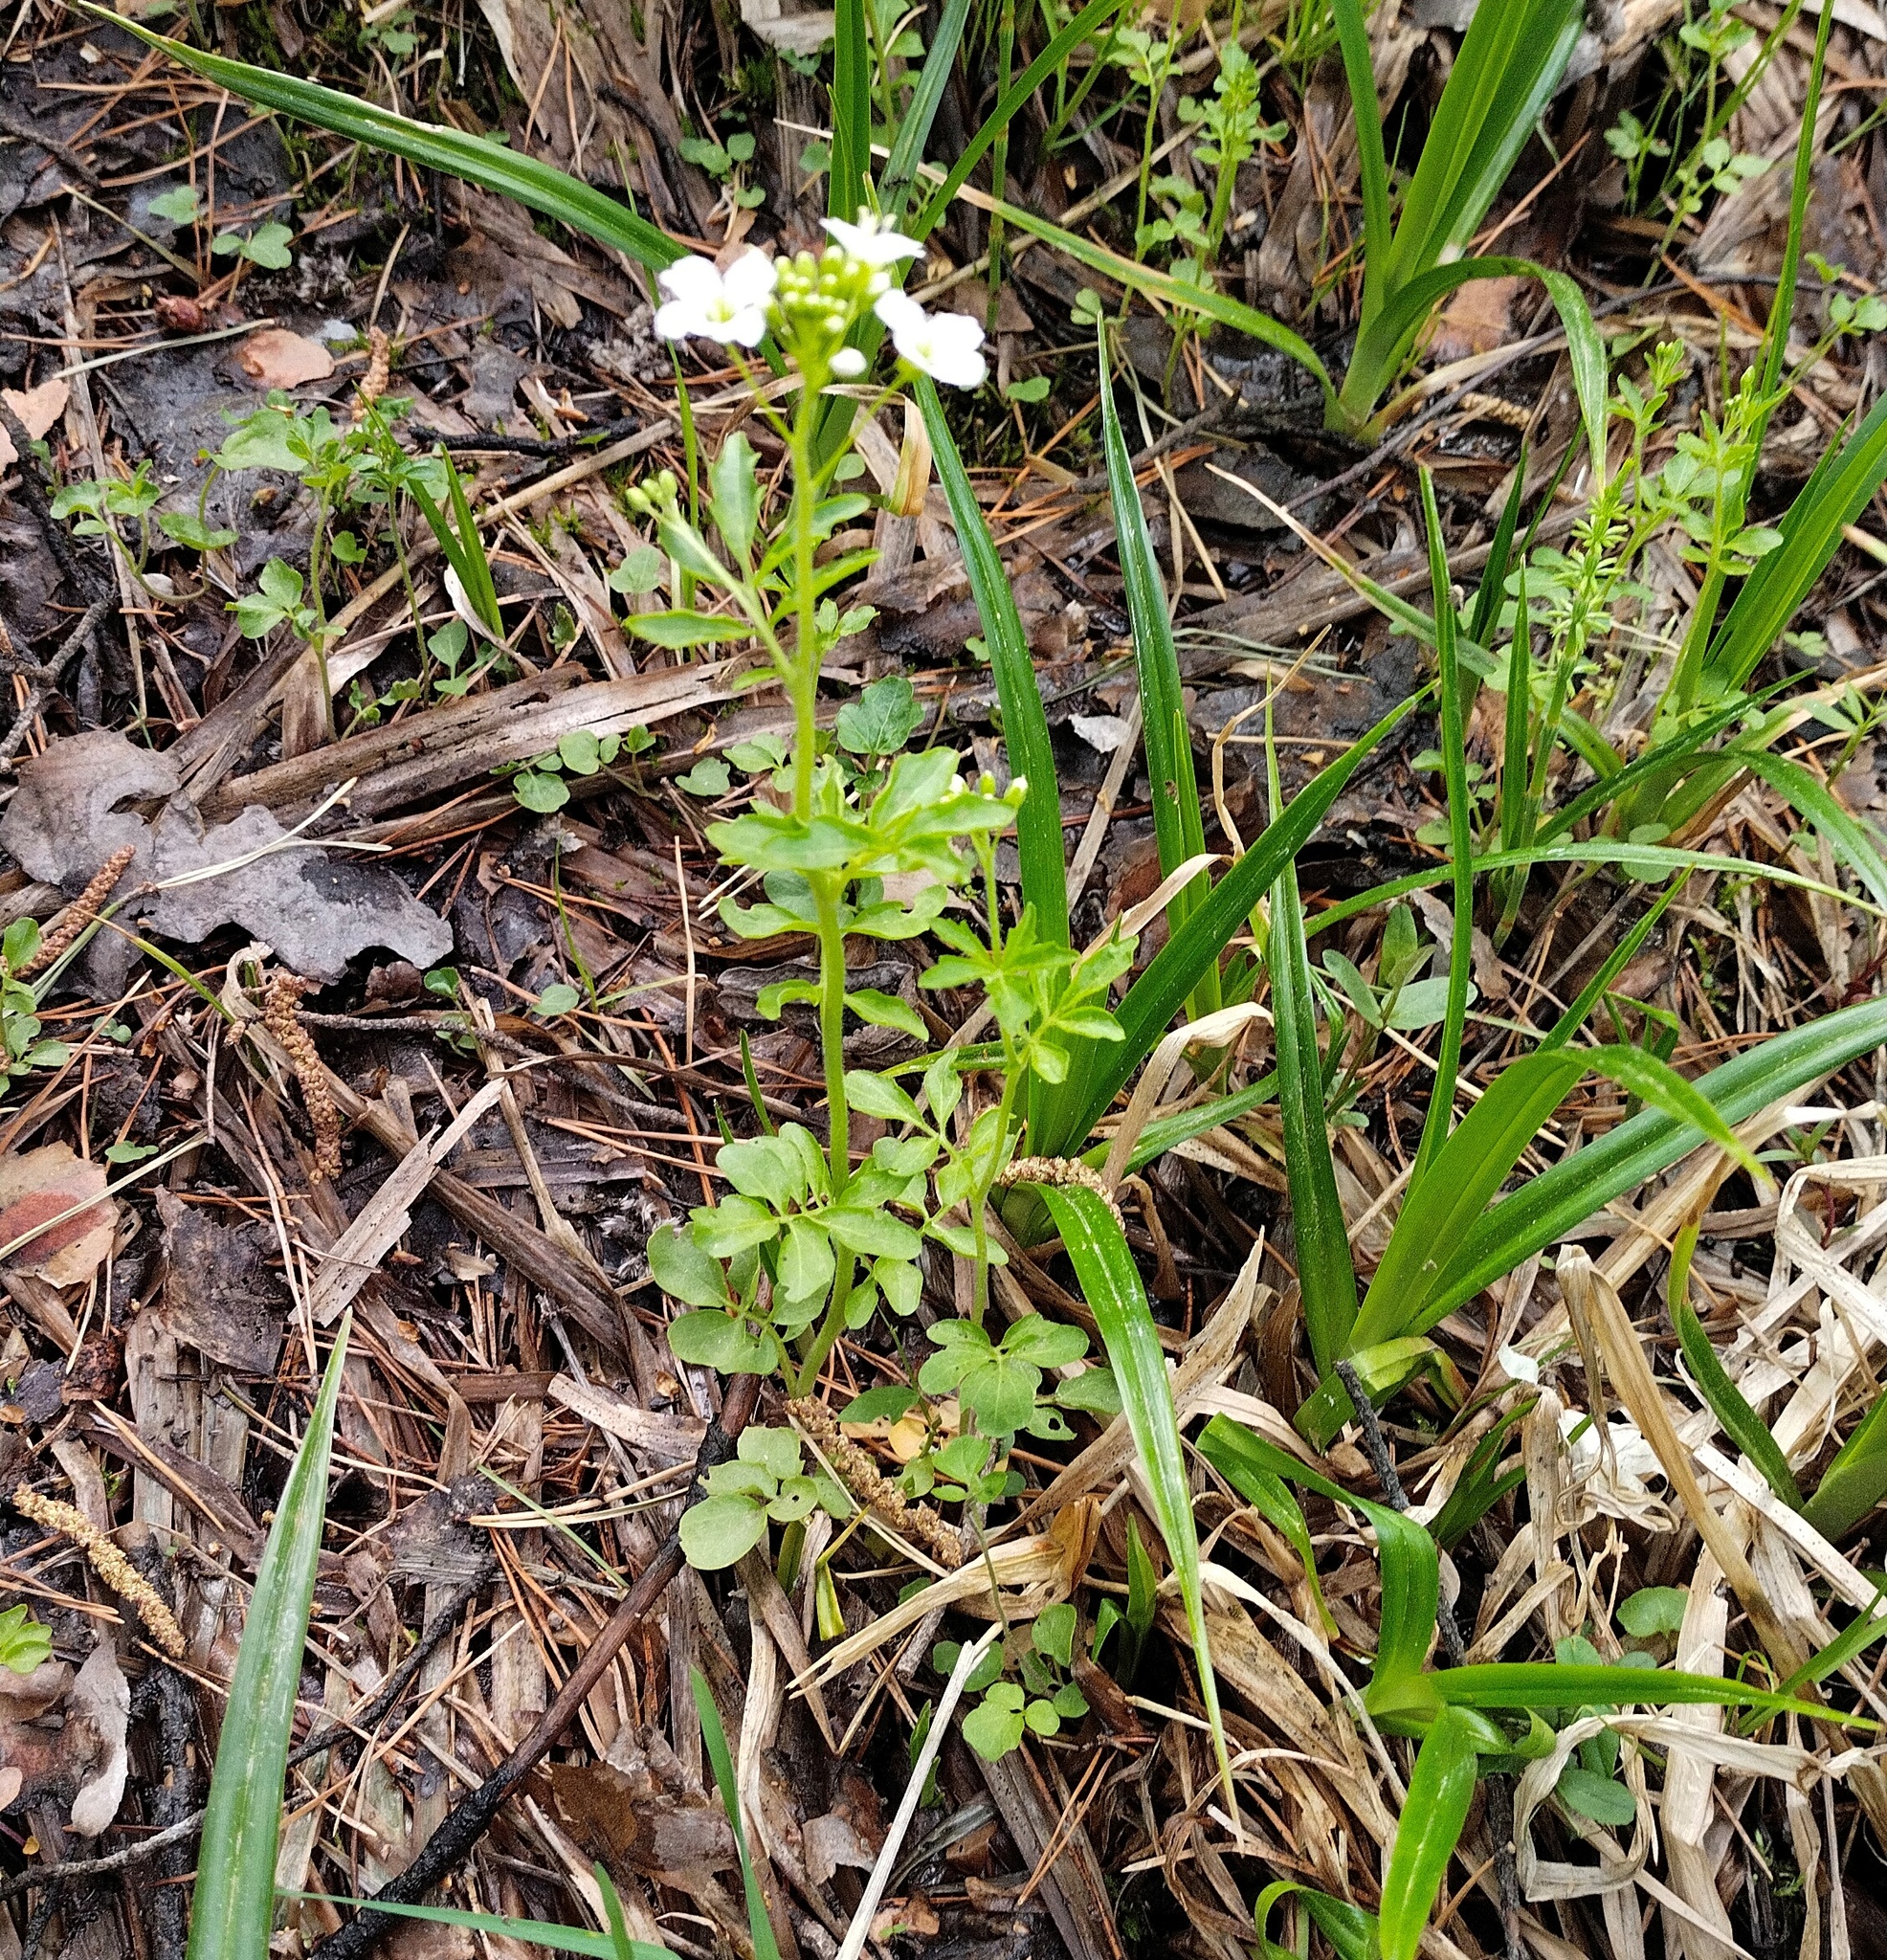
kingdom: Plantae
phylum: Tracheophyta
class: Magnoliopsida
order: Brassicales
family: Brassicaceae
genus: Cardamine
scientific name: Cardamine amara
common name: Large bitter-cress
